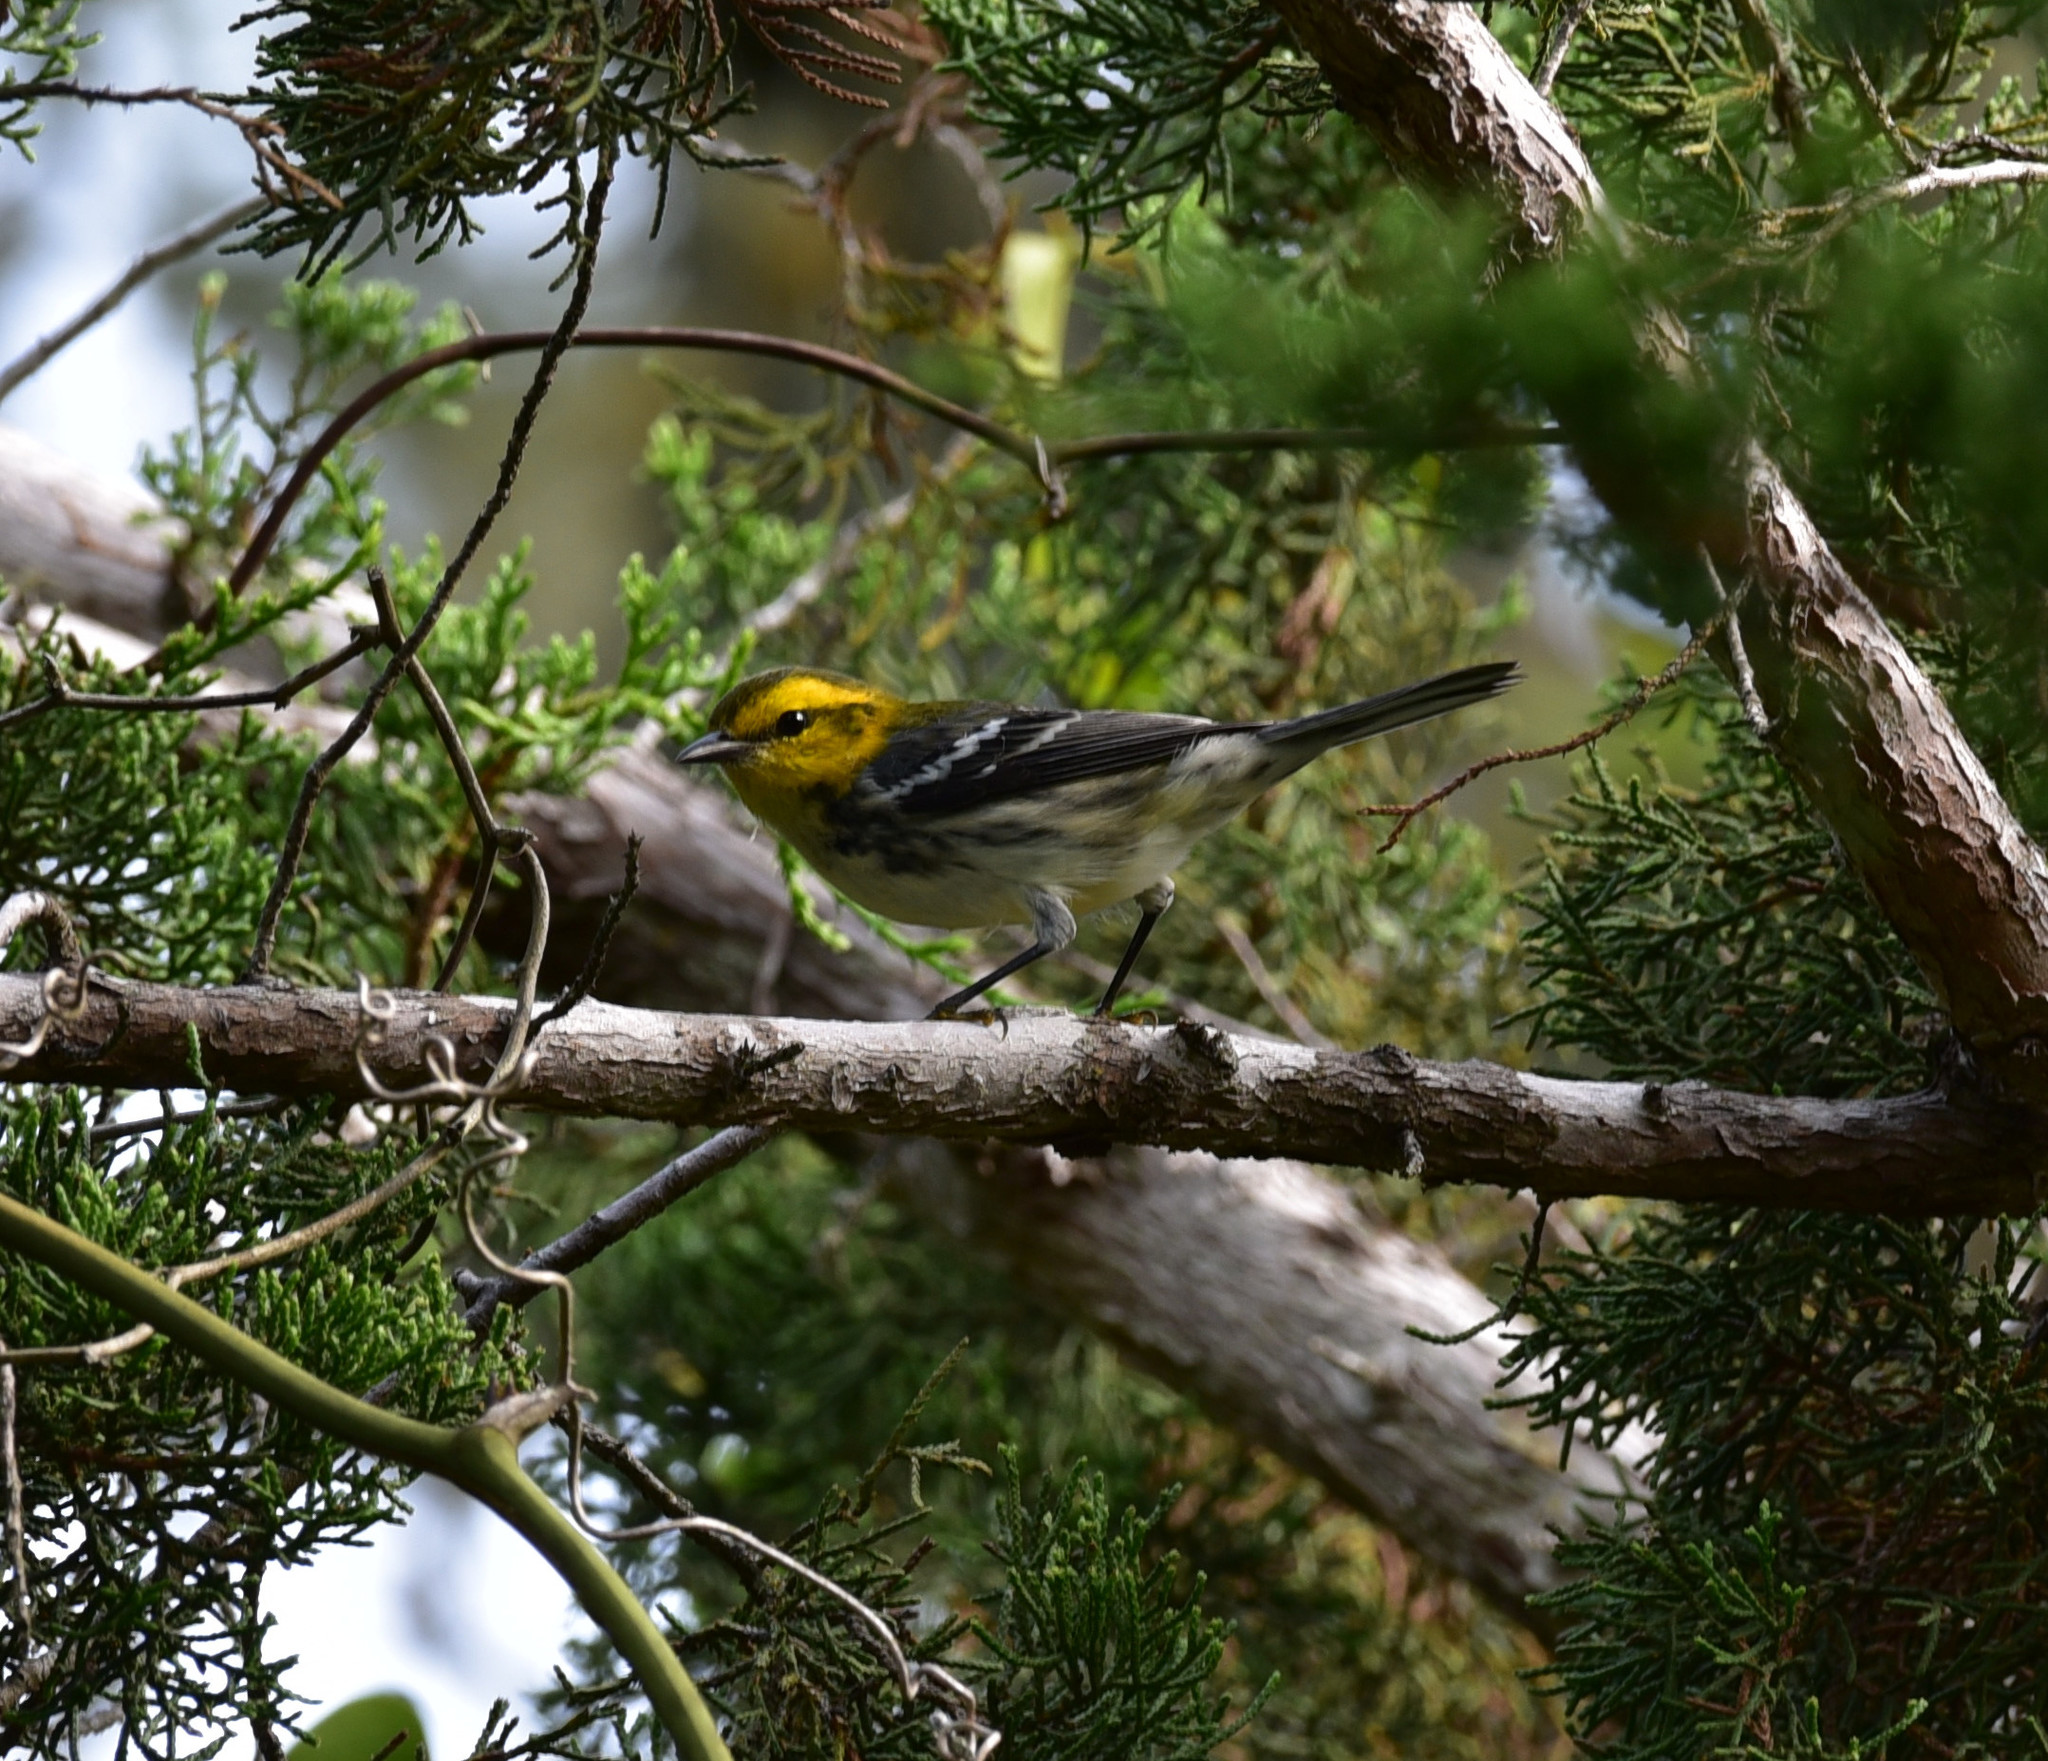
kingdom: Animalia
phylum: Chordata
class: Aves
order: Passeriformes
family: Parulidae
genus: Setophaga
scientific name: Setophaga chrysoparia
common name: Golden-cheeked warbler
